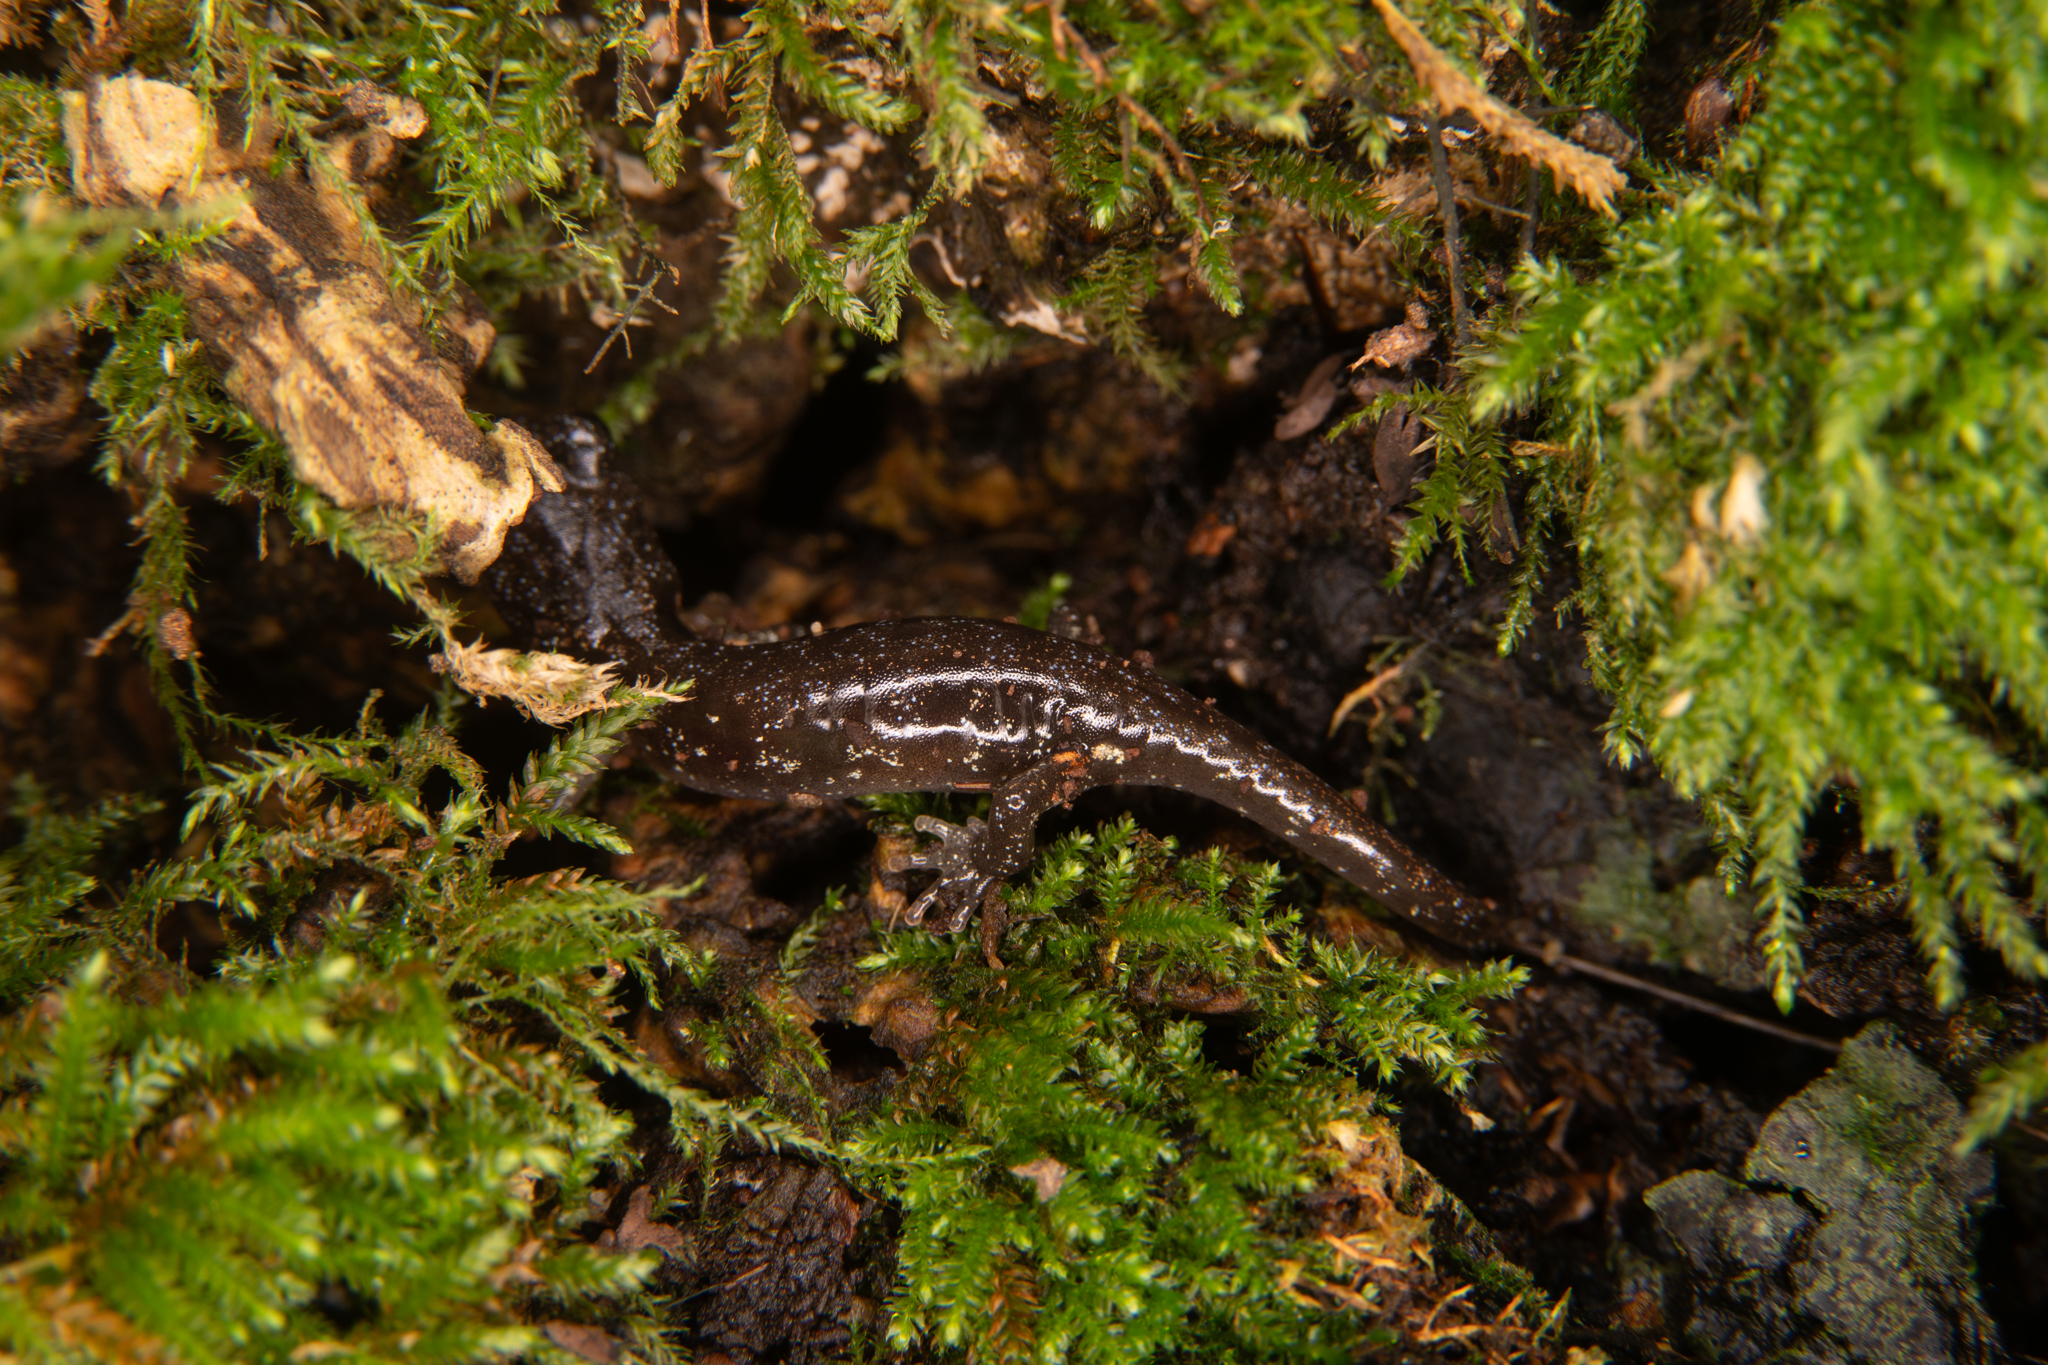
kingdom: Animalia
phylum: Chordata
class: Amphibia
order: Caudata
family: Plethodontidae
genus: Aneides
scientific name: Aneides lugubris
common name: Arboreal salamander
